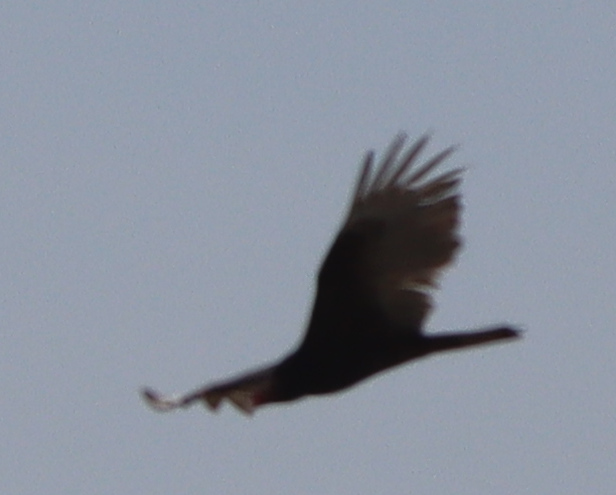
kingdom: Animalia
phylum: Chordata
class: Aves
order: Accipitriformes
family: Cathartidae
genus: Cathartes
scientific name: Cathartes aura
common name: Turkey vulture
